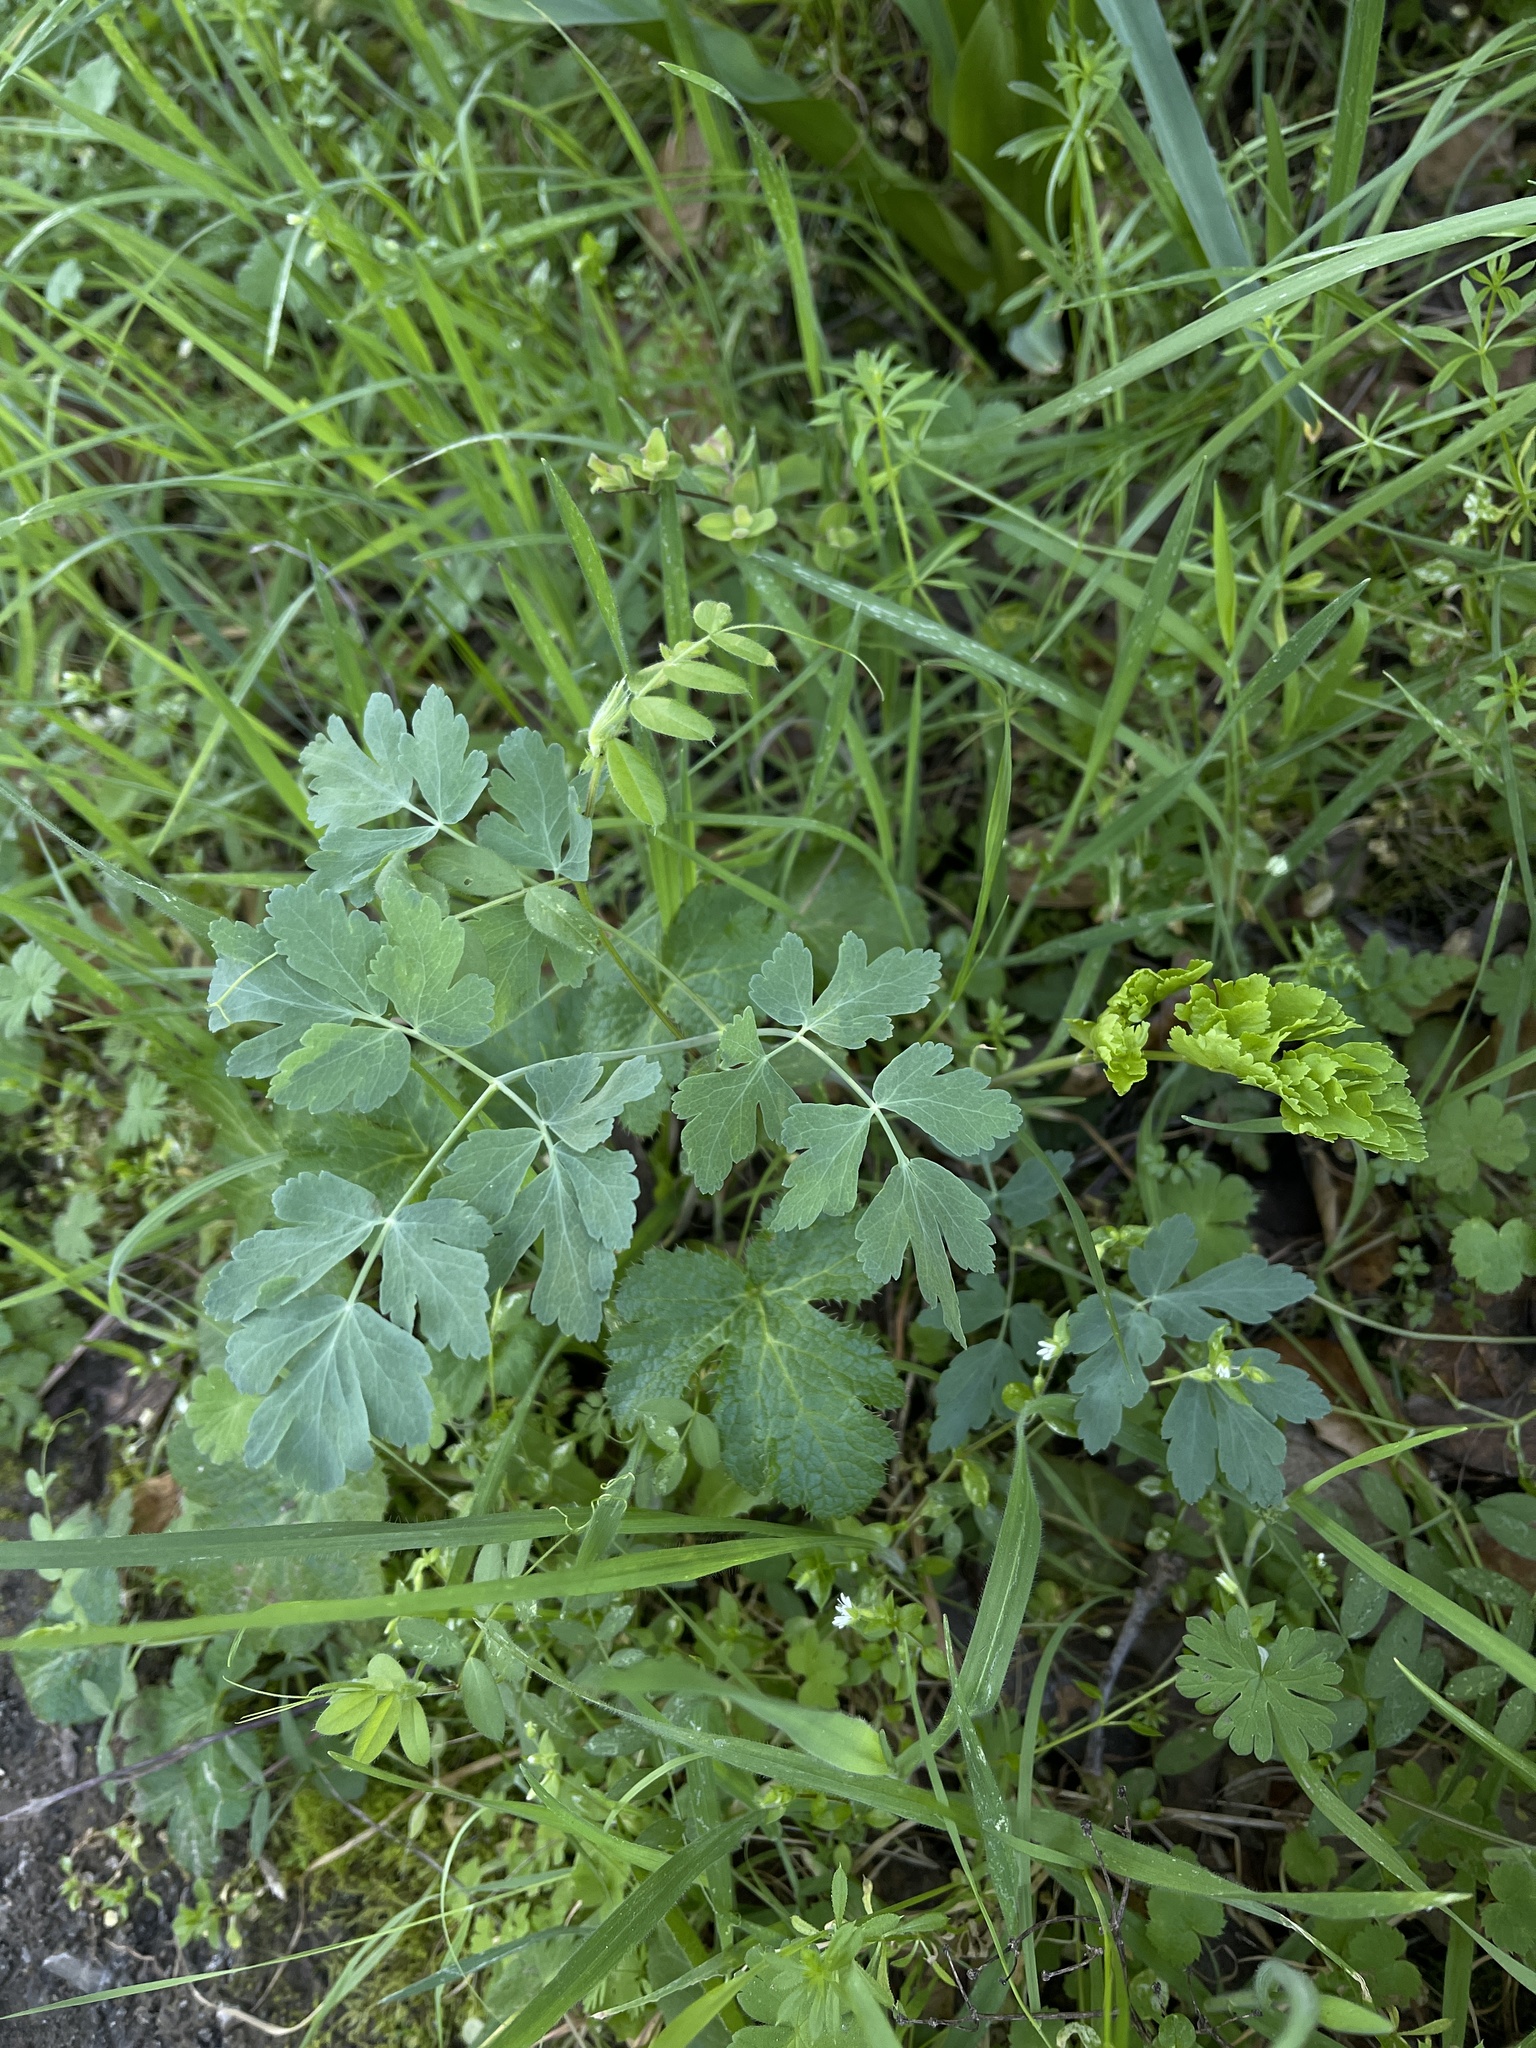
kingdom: Plantae
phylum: Tracheophyta
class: Magnoliopsida
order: Apiales
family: Apiaceae
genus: Lomatium
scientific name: Lomatium californicum
